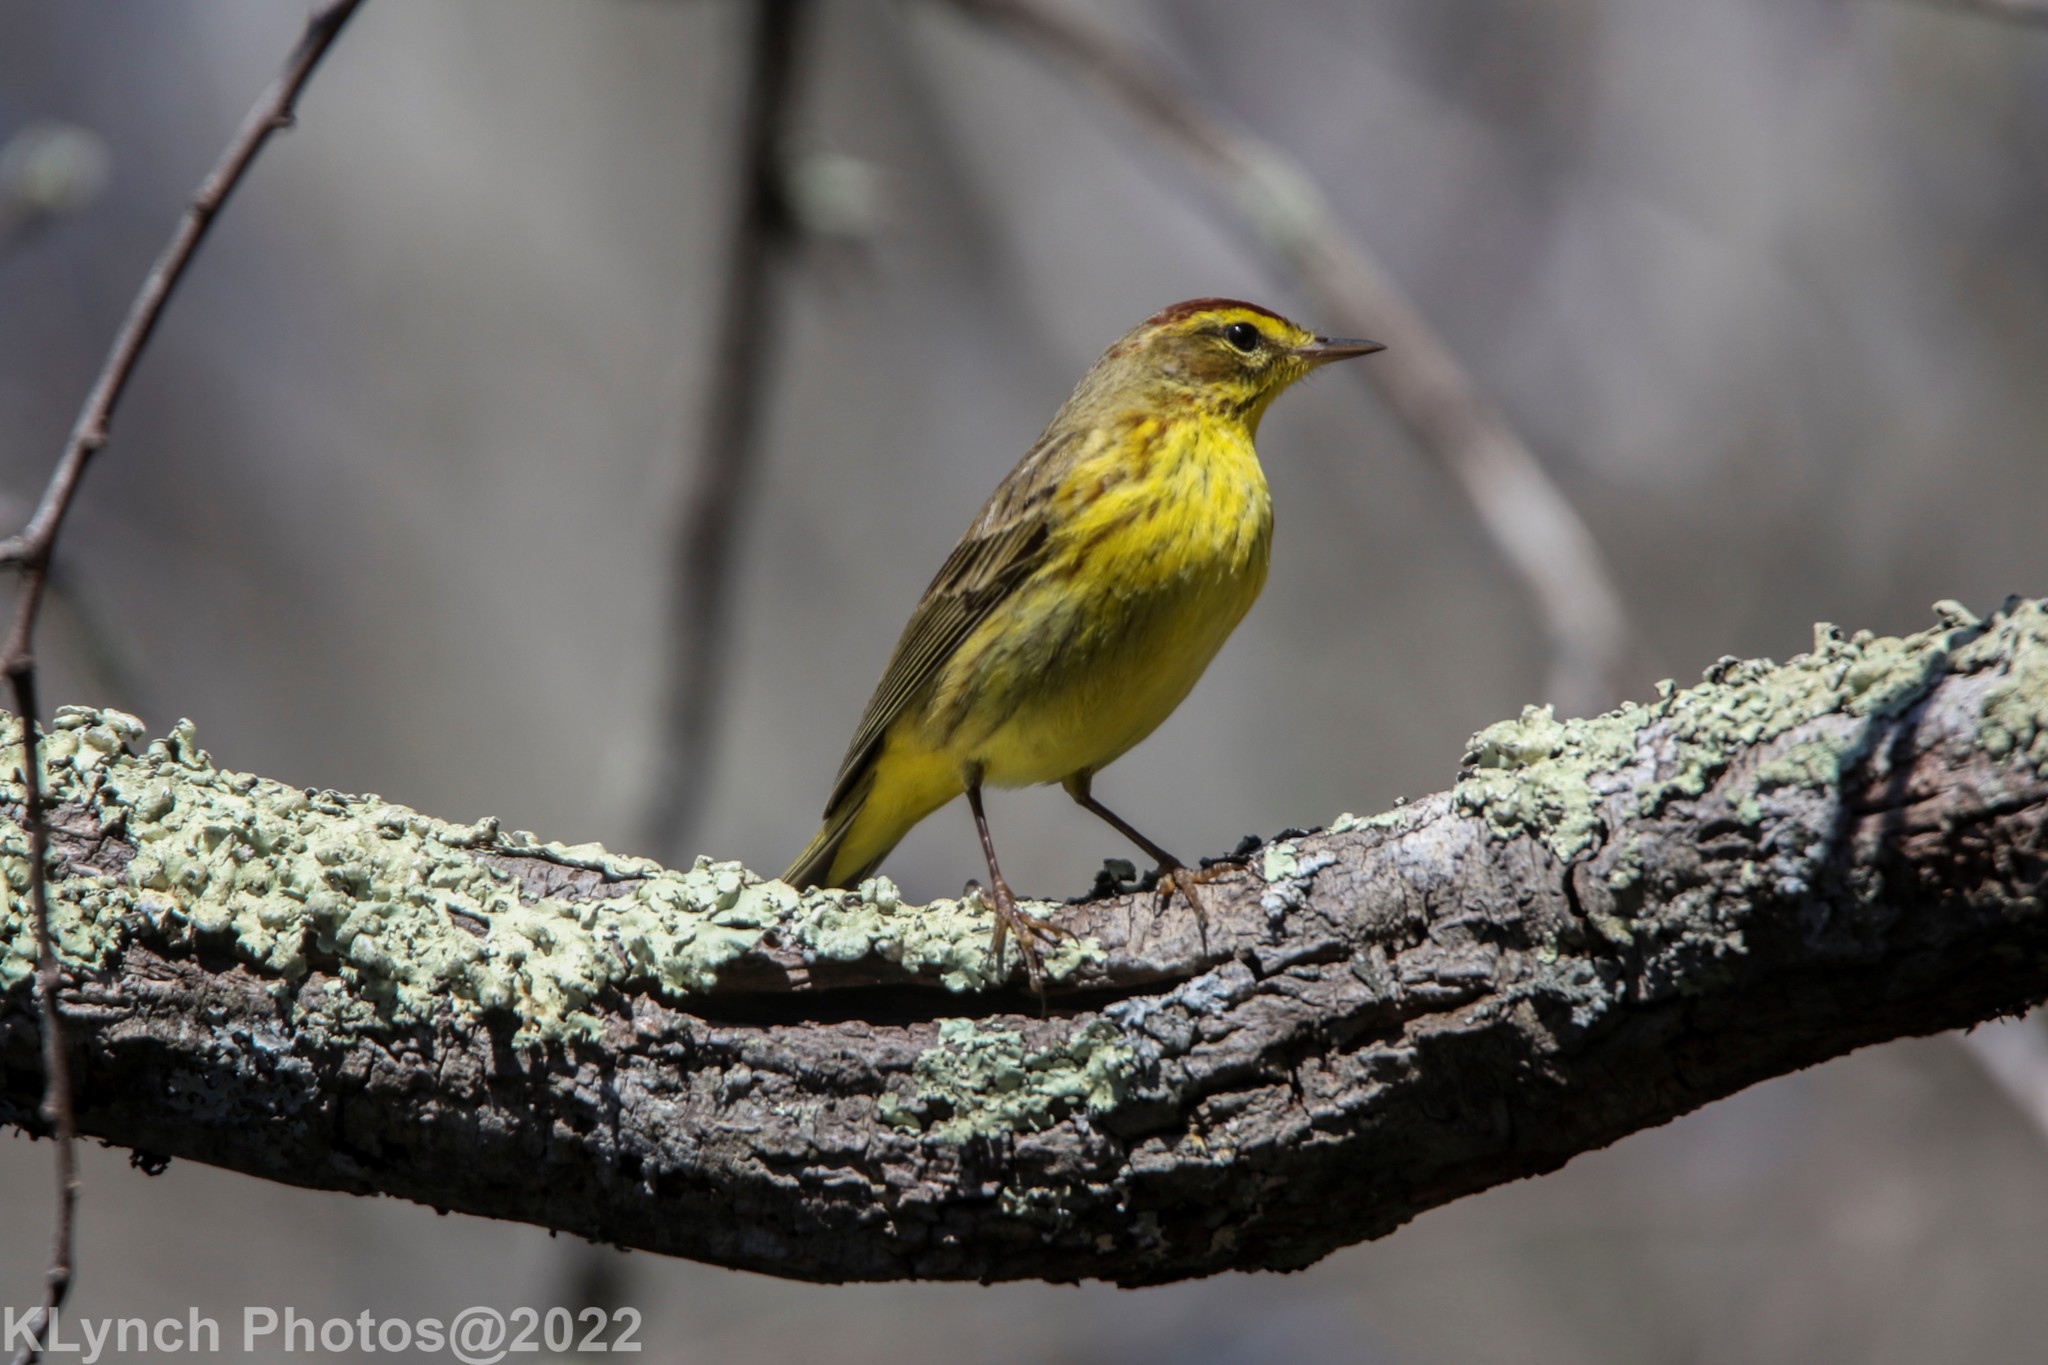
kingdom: Animalia
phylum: Chordata
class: Aves
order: Passeriformes
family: Parulidae
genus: Setophaga
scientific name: Setophaga palmarum
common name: Palm warbler
